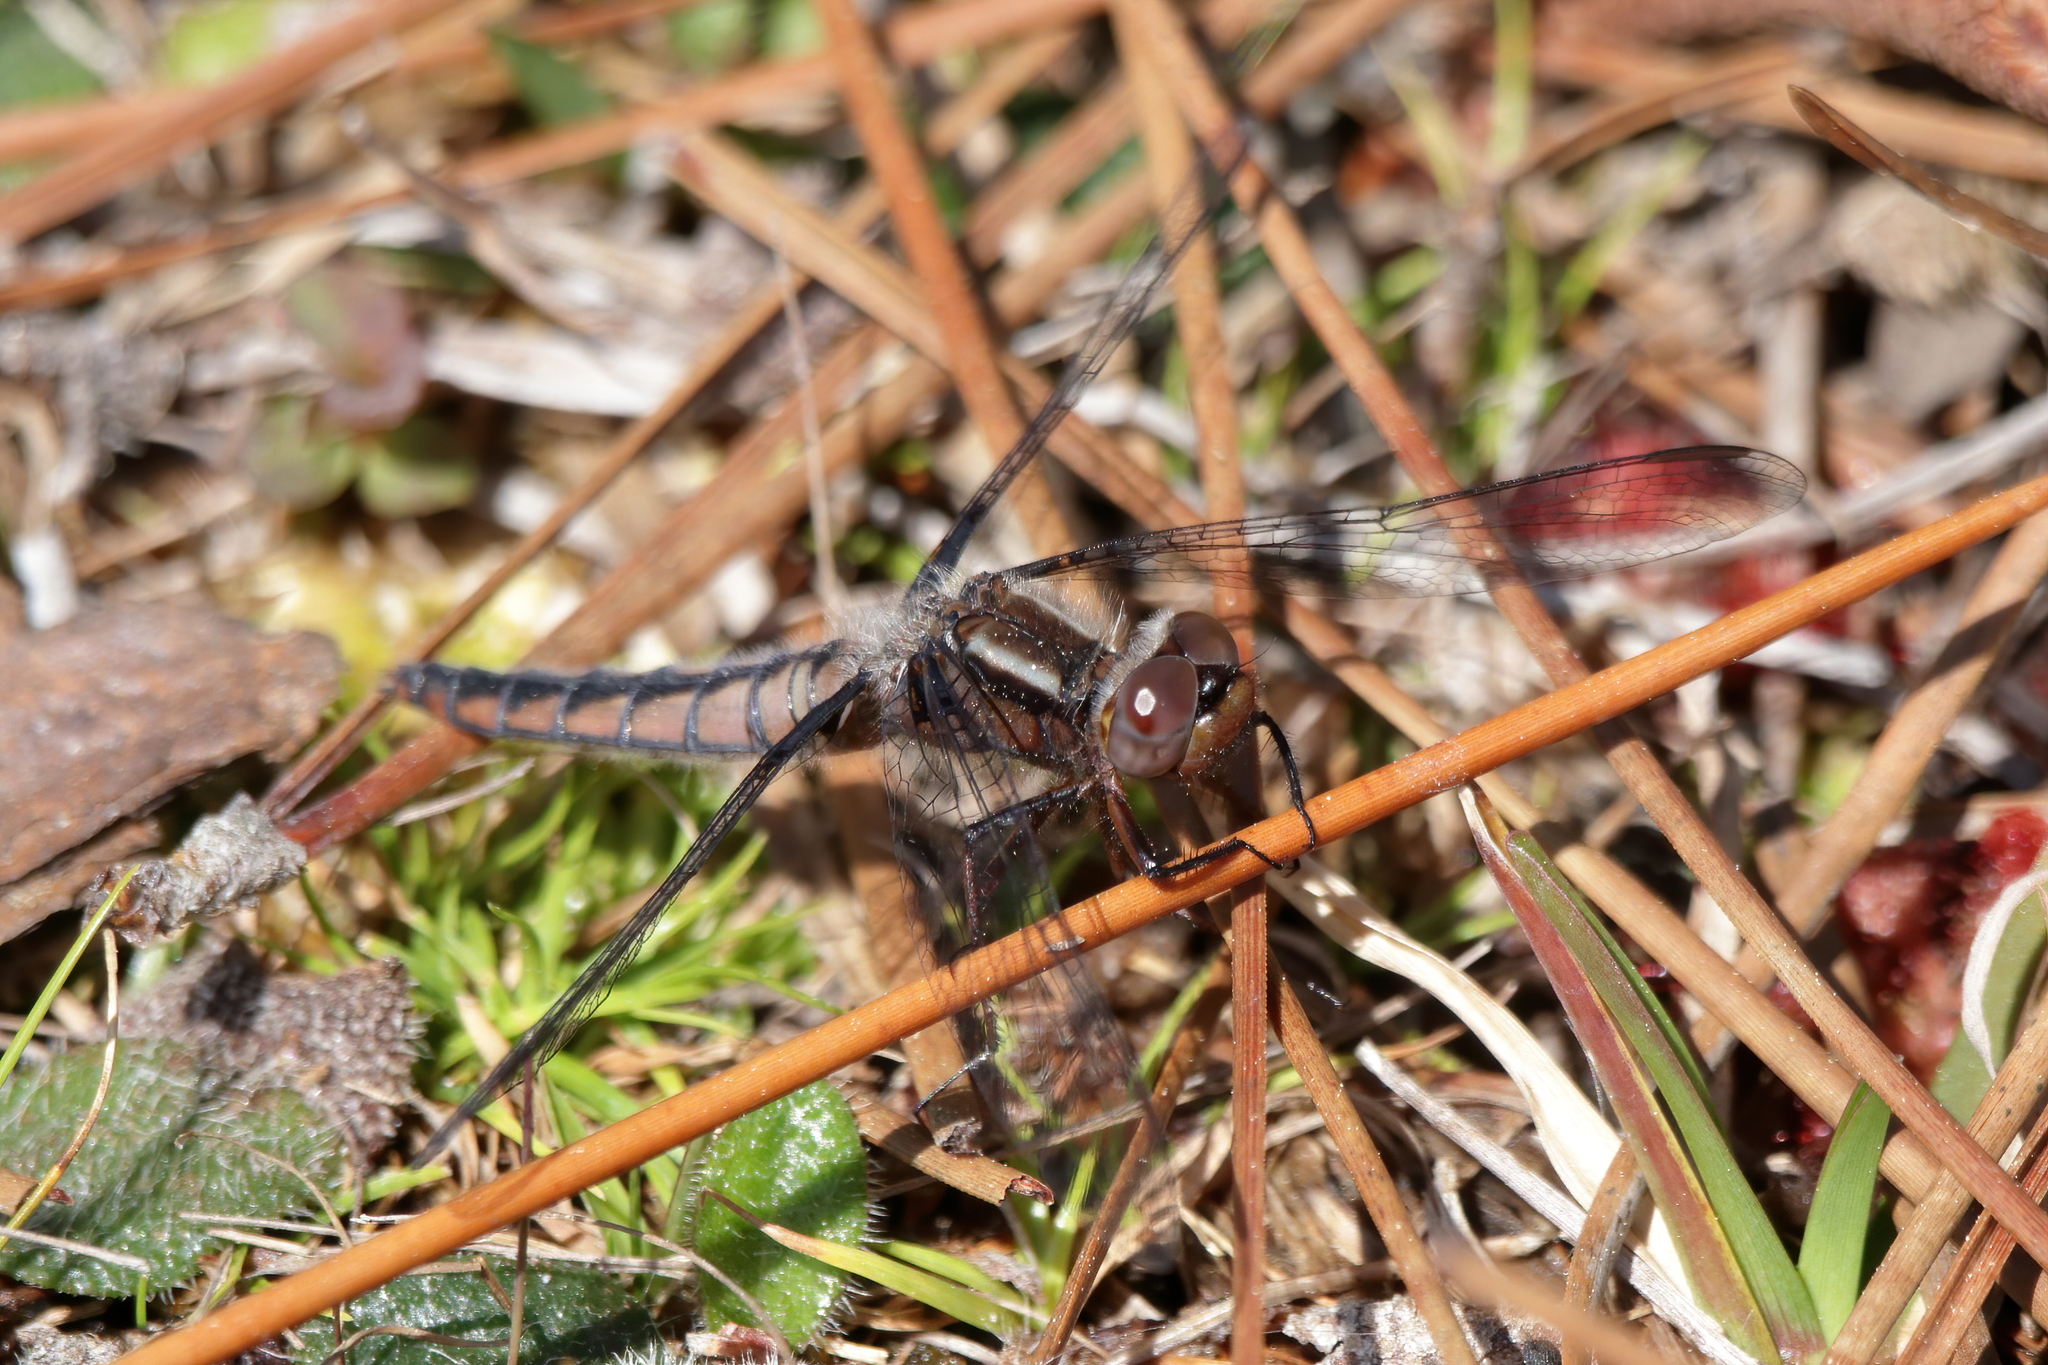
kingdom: Animalia
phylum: Arthropoda
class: Insecta
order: Odonata
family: Libellulidae
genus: Ladona
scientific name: Ladona deplanata
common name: Blue corporal
